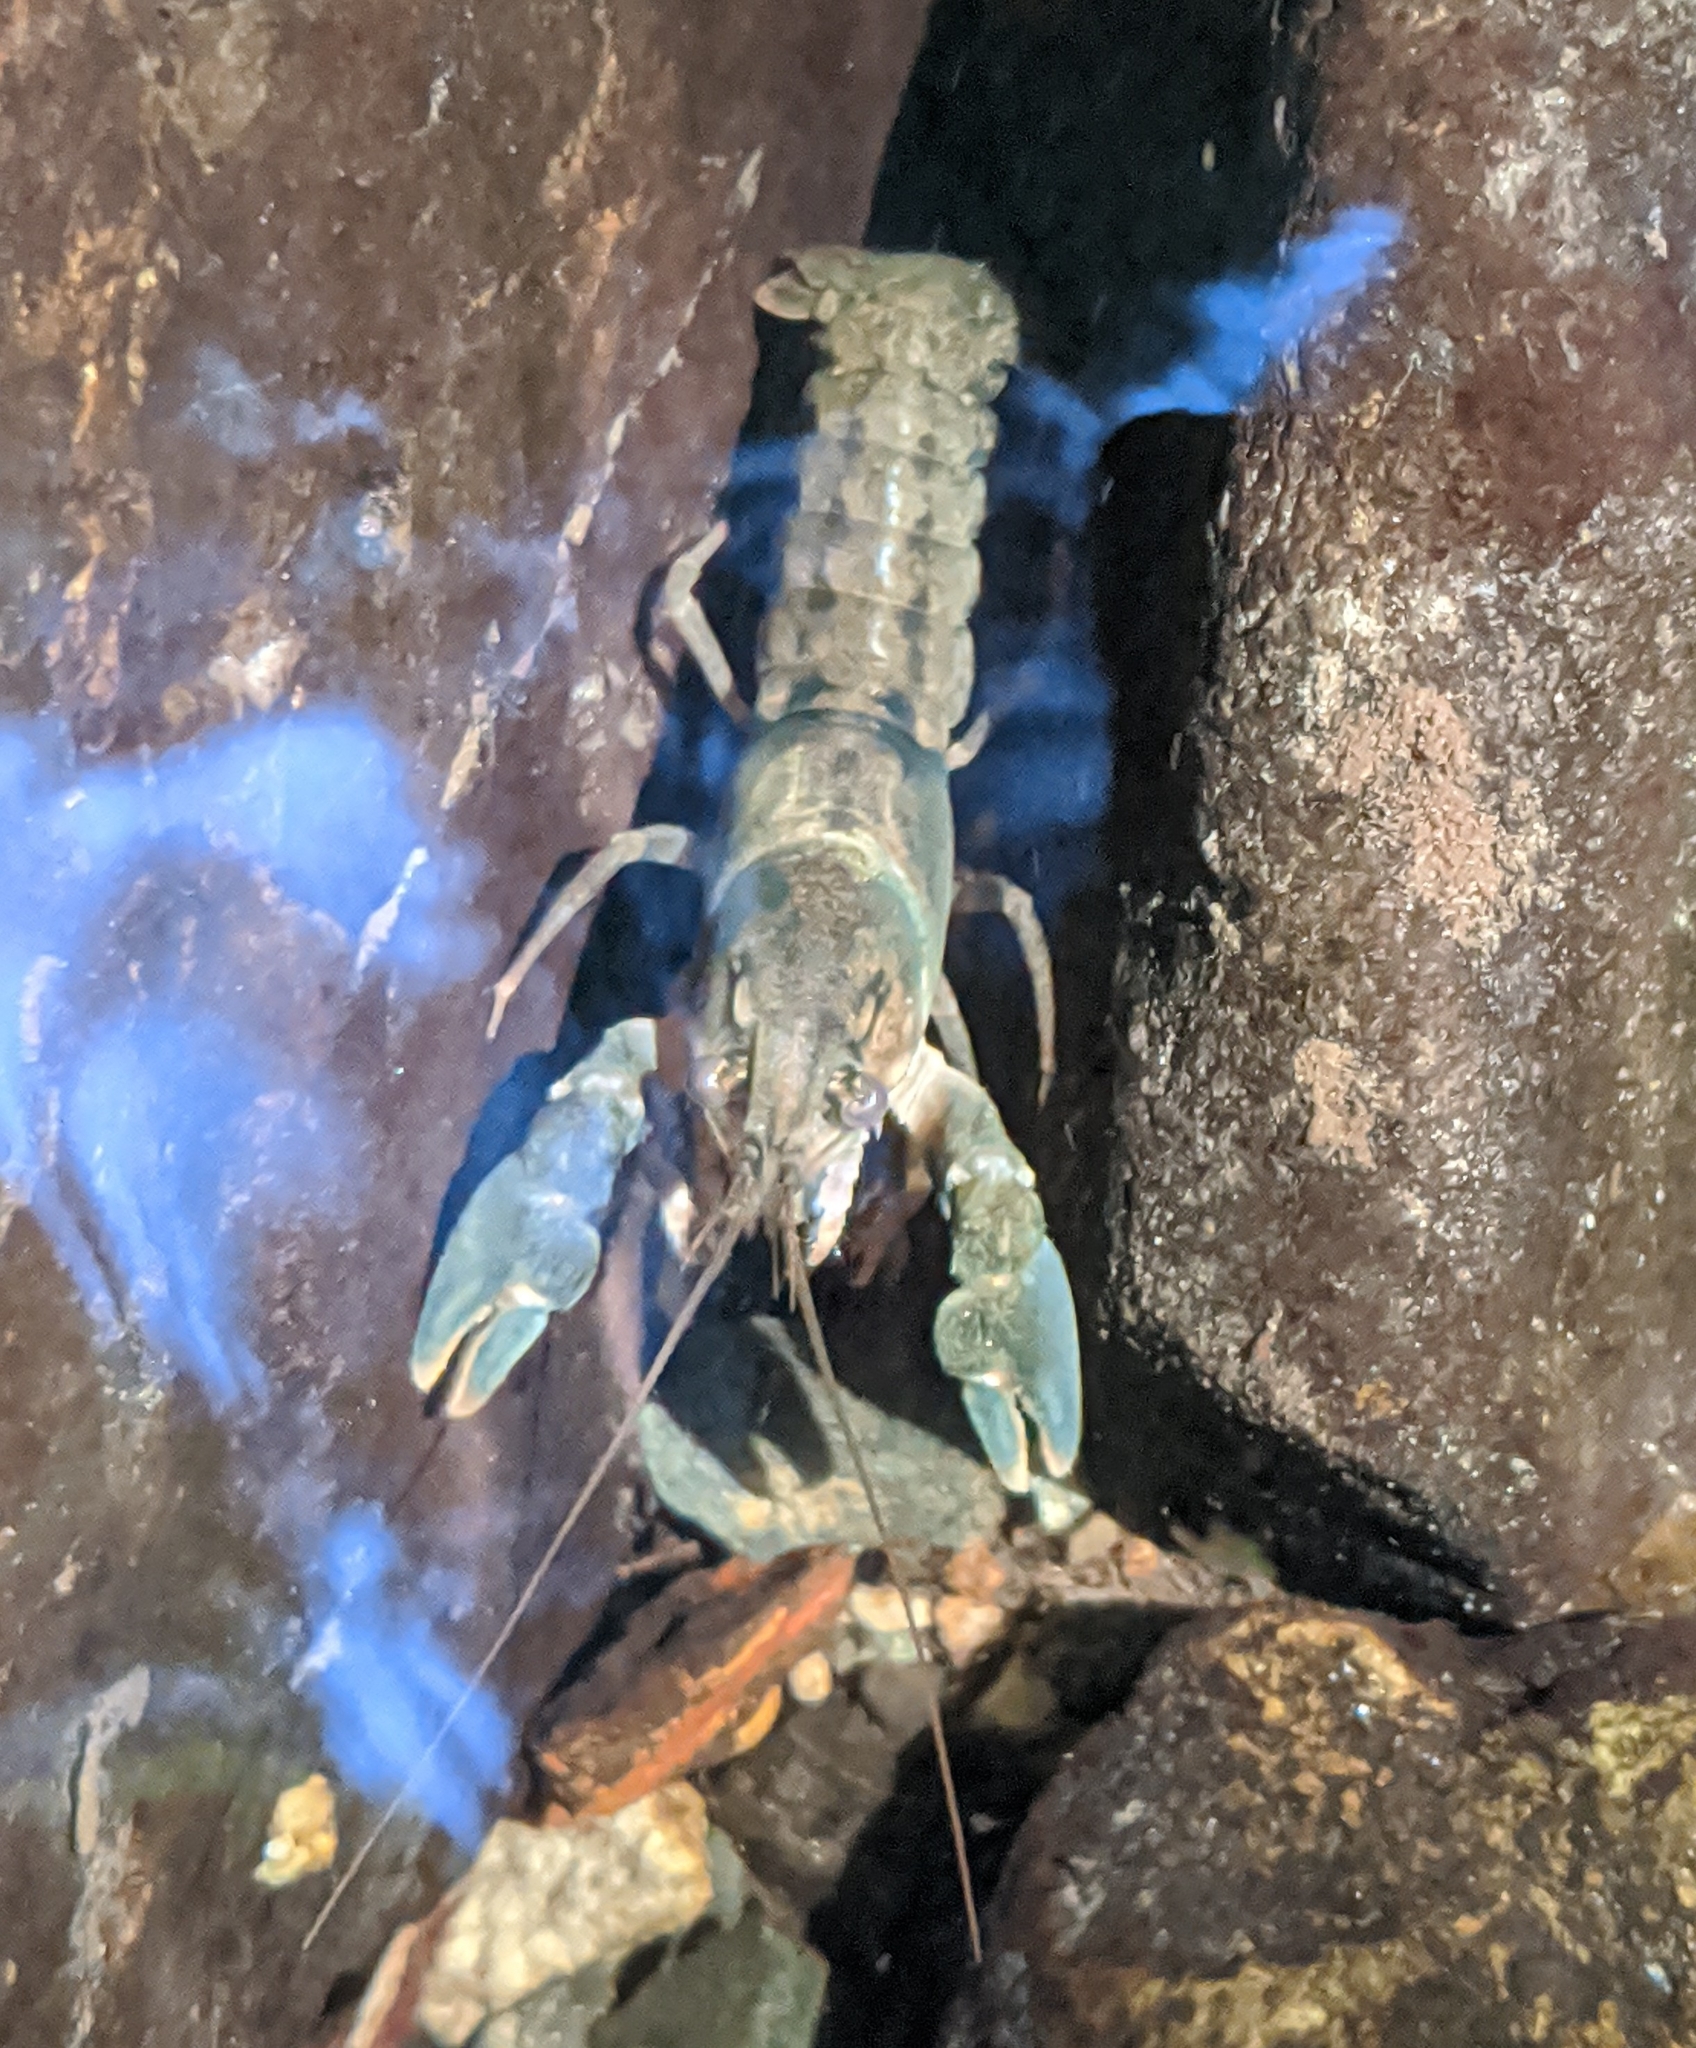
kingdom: Animalia
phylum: Arthropoda
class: Malacostraca
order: Decapoda
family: Astacidae
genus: Pacifastacus
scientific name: Pacifastacus leniusculus
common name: Signal crayfish
